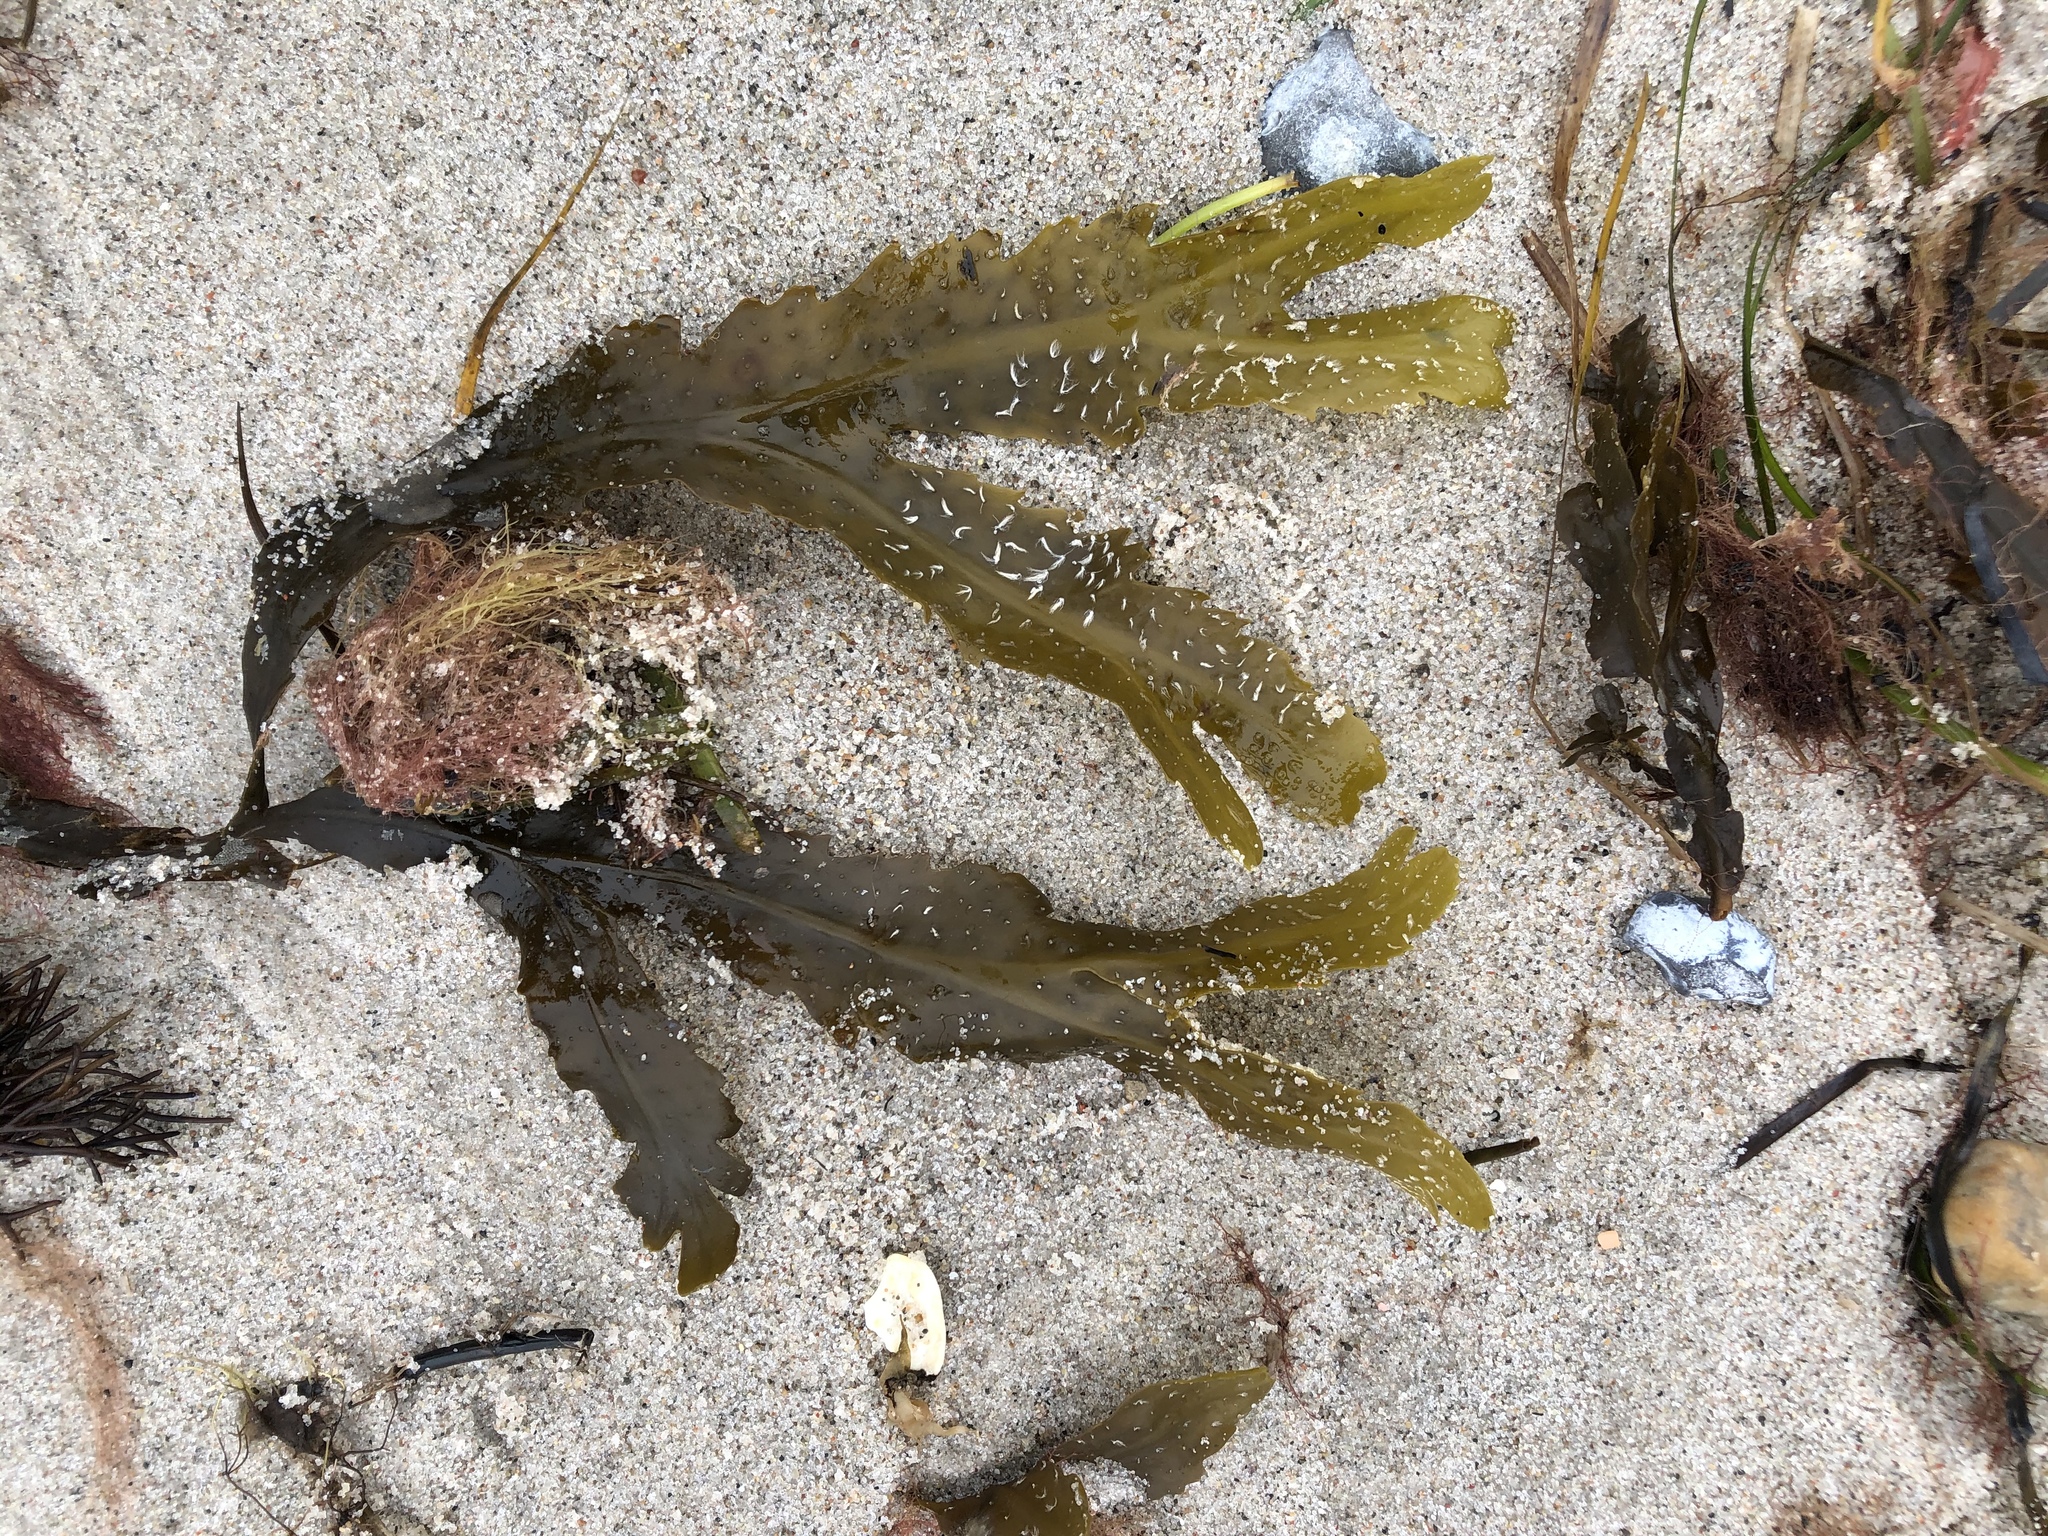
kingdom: Chromista
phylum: Ochrophyta
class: Phaeophyceae
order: Fucales
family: Fucaceae
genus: Fucus
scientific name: Fucus serratus
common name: Toothed wrack
